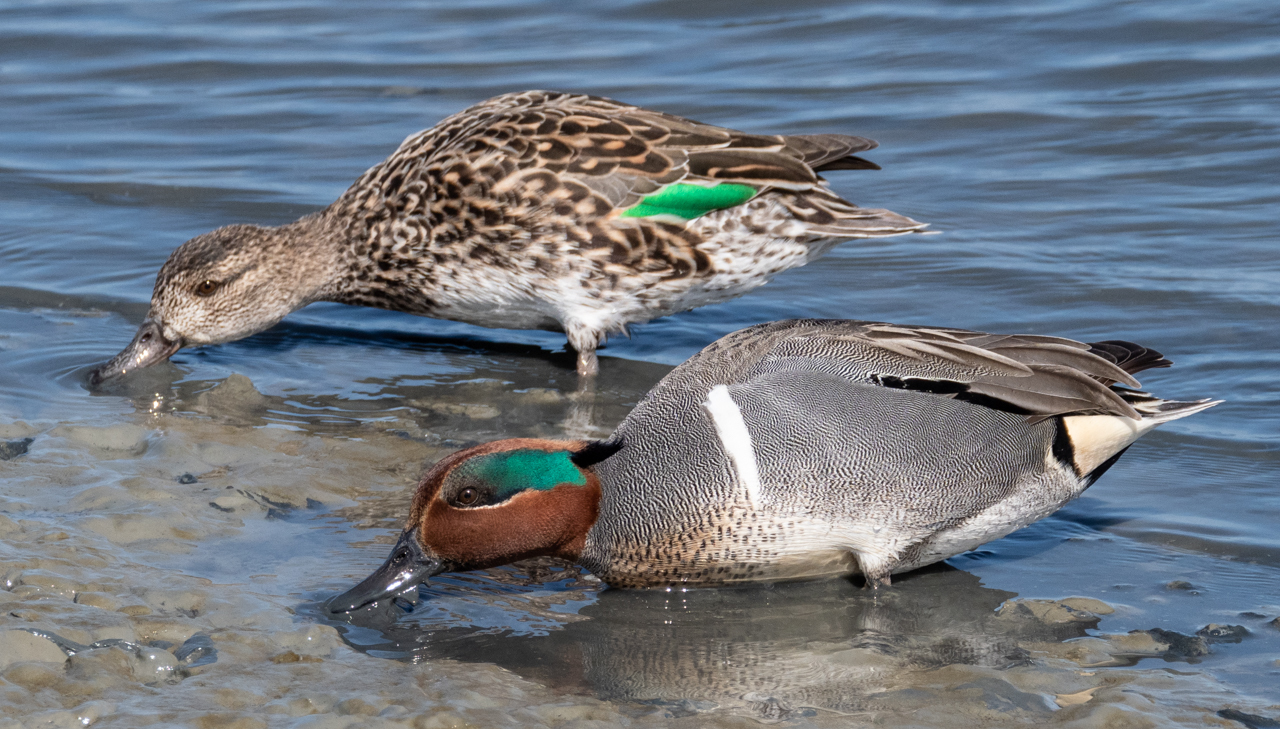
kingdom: Animalia
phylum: Chordata
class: Aves
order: Anseriformes
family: Anatidae
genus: Anas
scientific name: Anas crecca
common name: Eurasian teal
